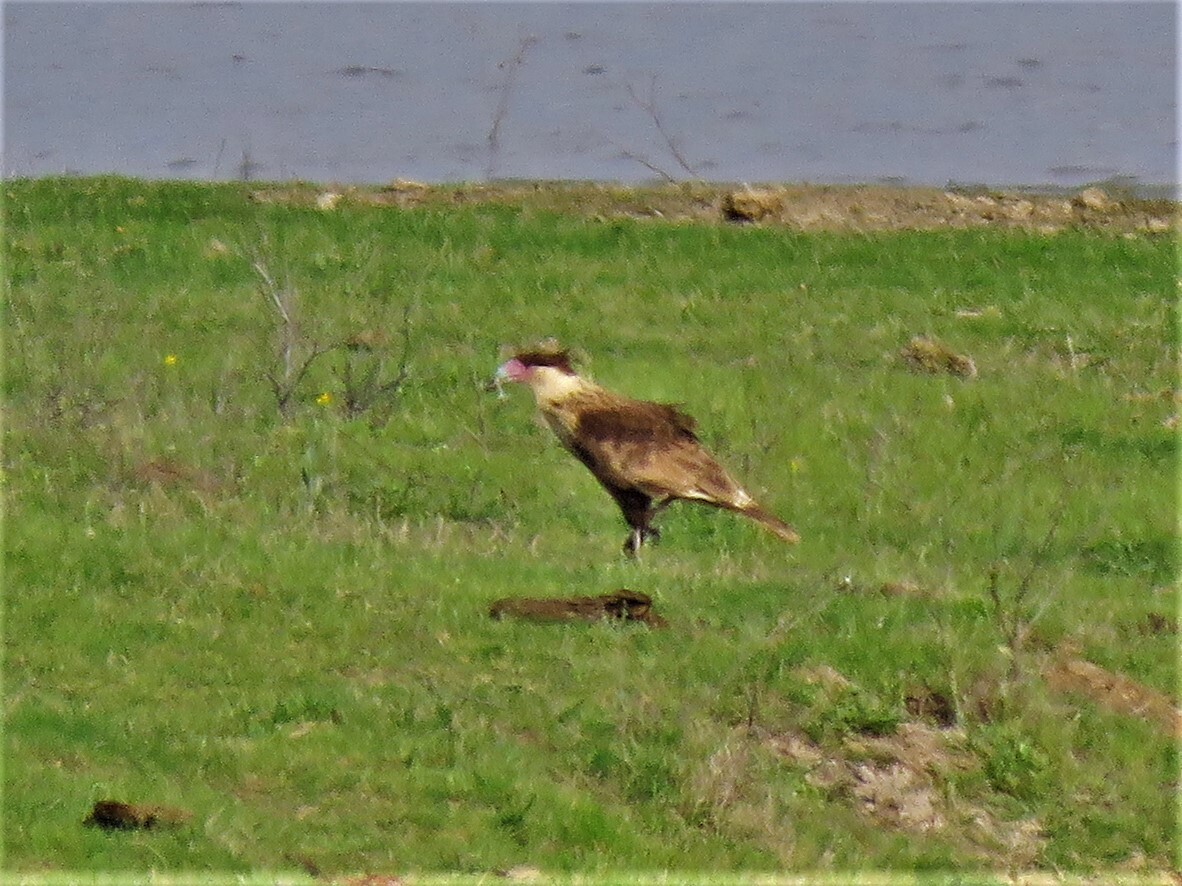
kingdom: Animalia
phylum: Chordata
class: Aves
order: Falconiformes
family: Falconidae
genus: Caracara
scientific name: Caracara plancus
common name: Southern caracara
